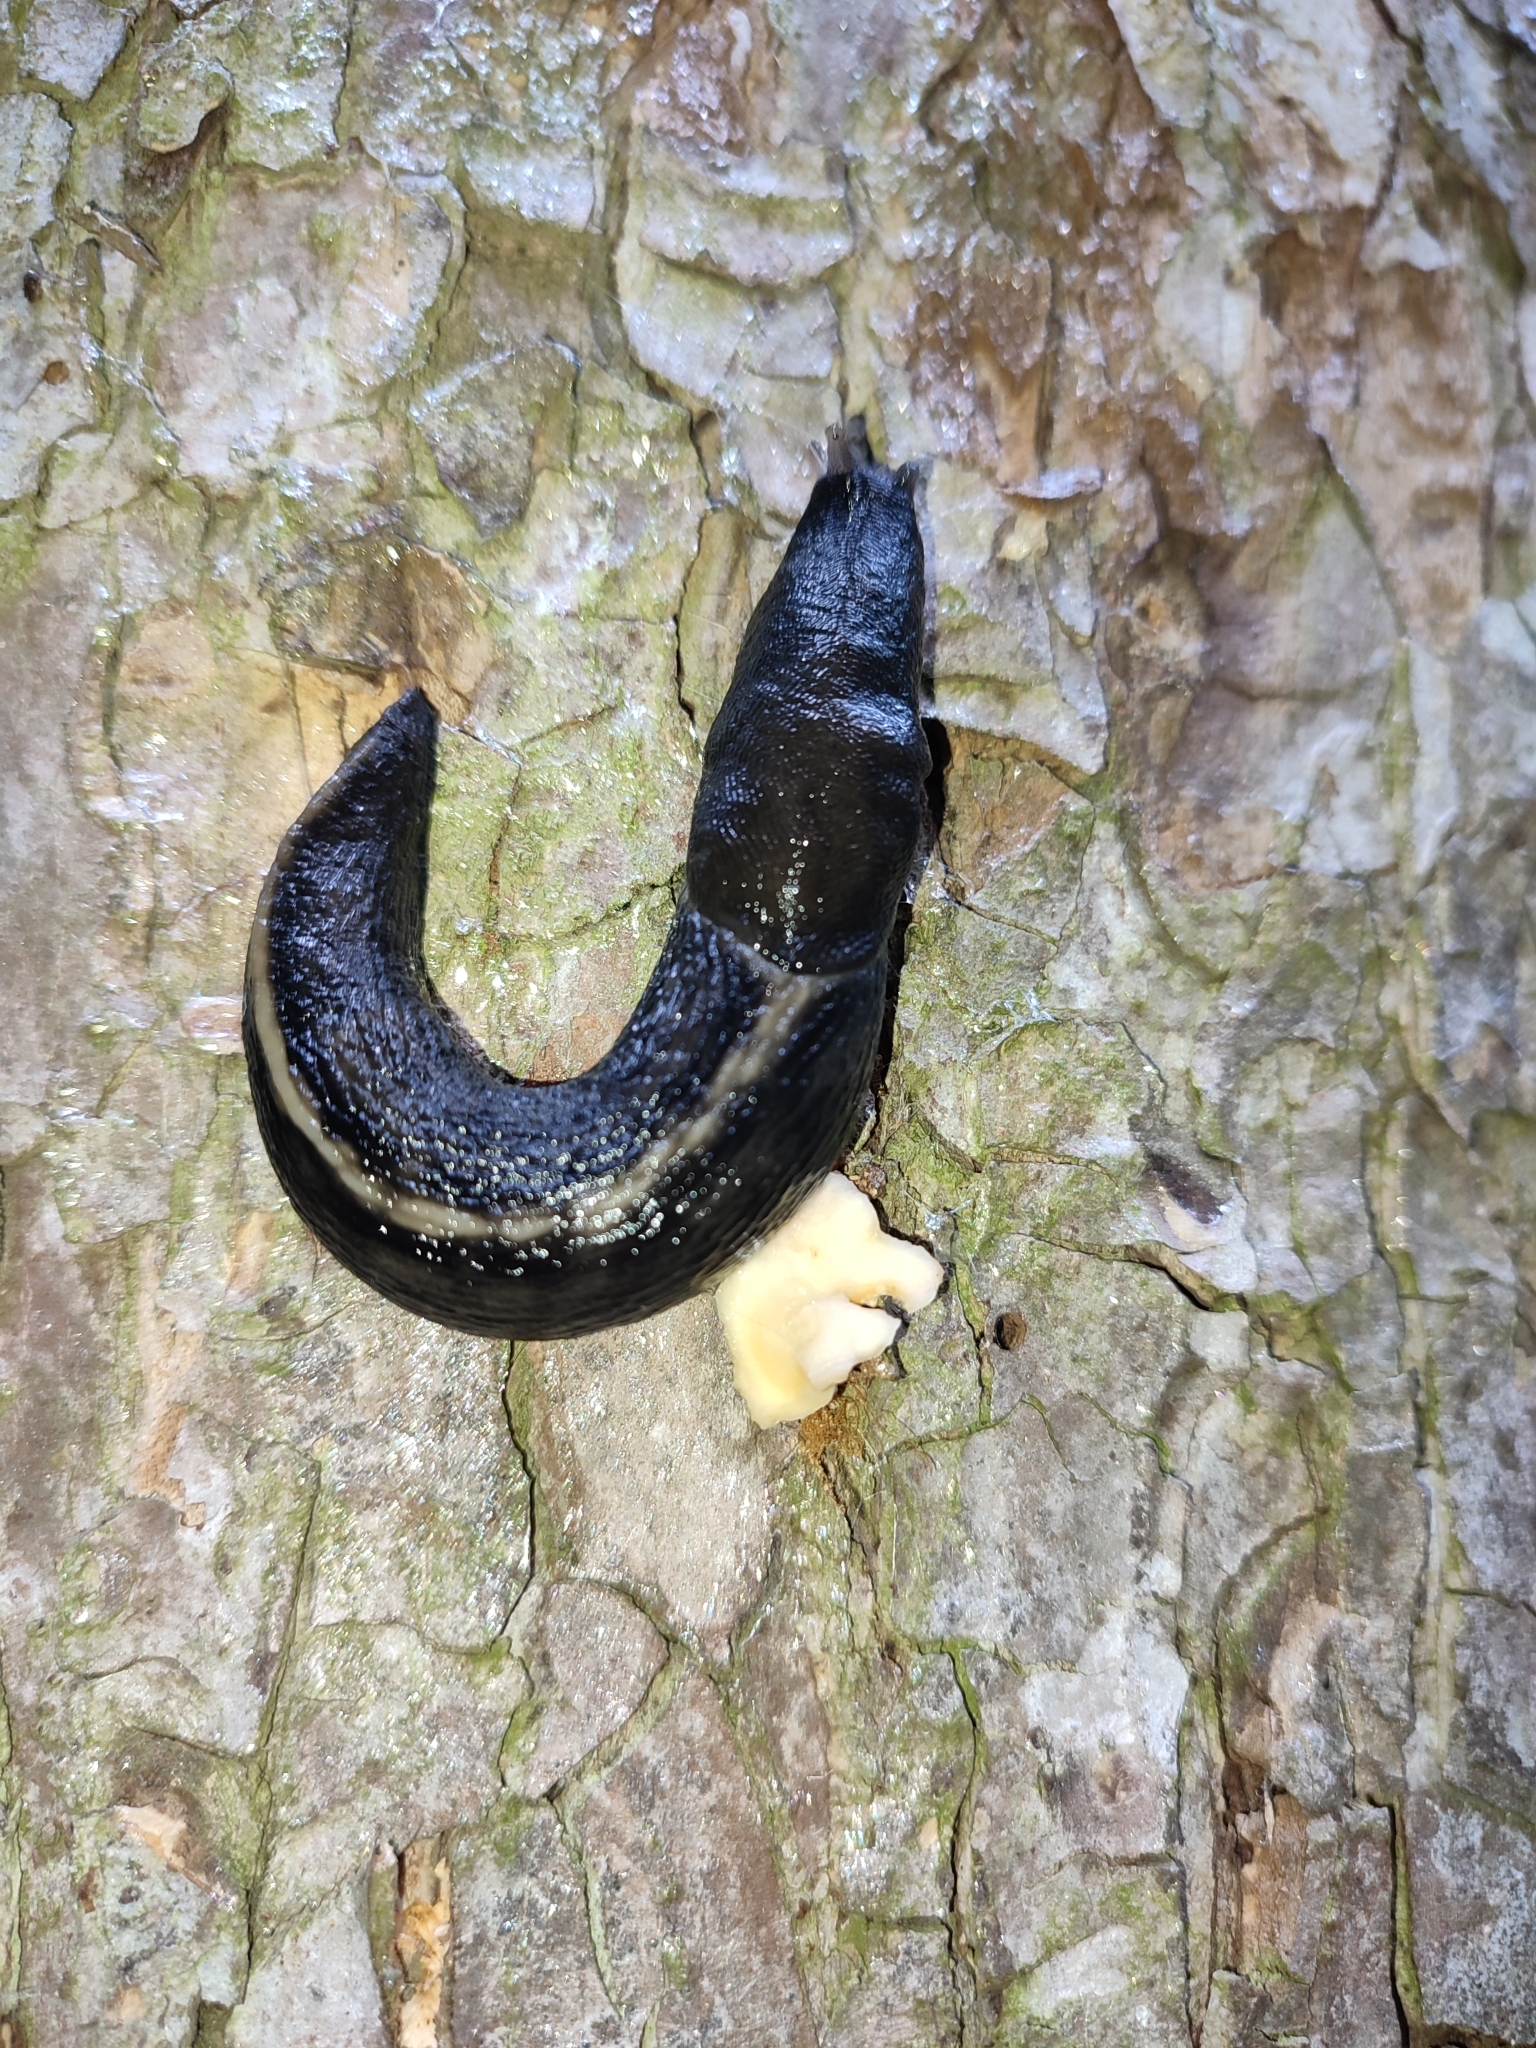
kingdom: Animalia
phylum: Mollusca
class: Gastropoda
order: Stylommatophora
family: Limacidae
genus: Limax
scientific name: Limax cinereoniger
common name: Ash-black slug
